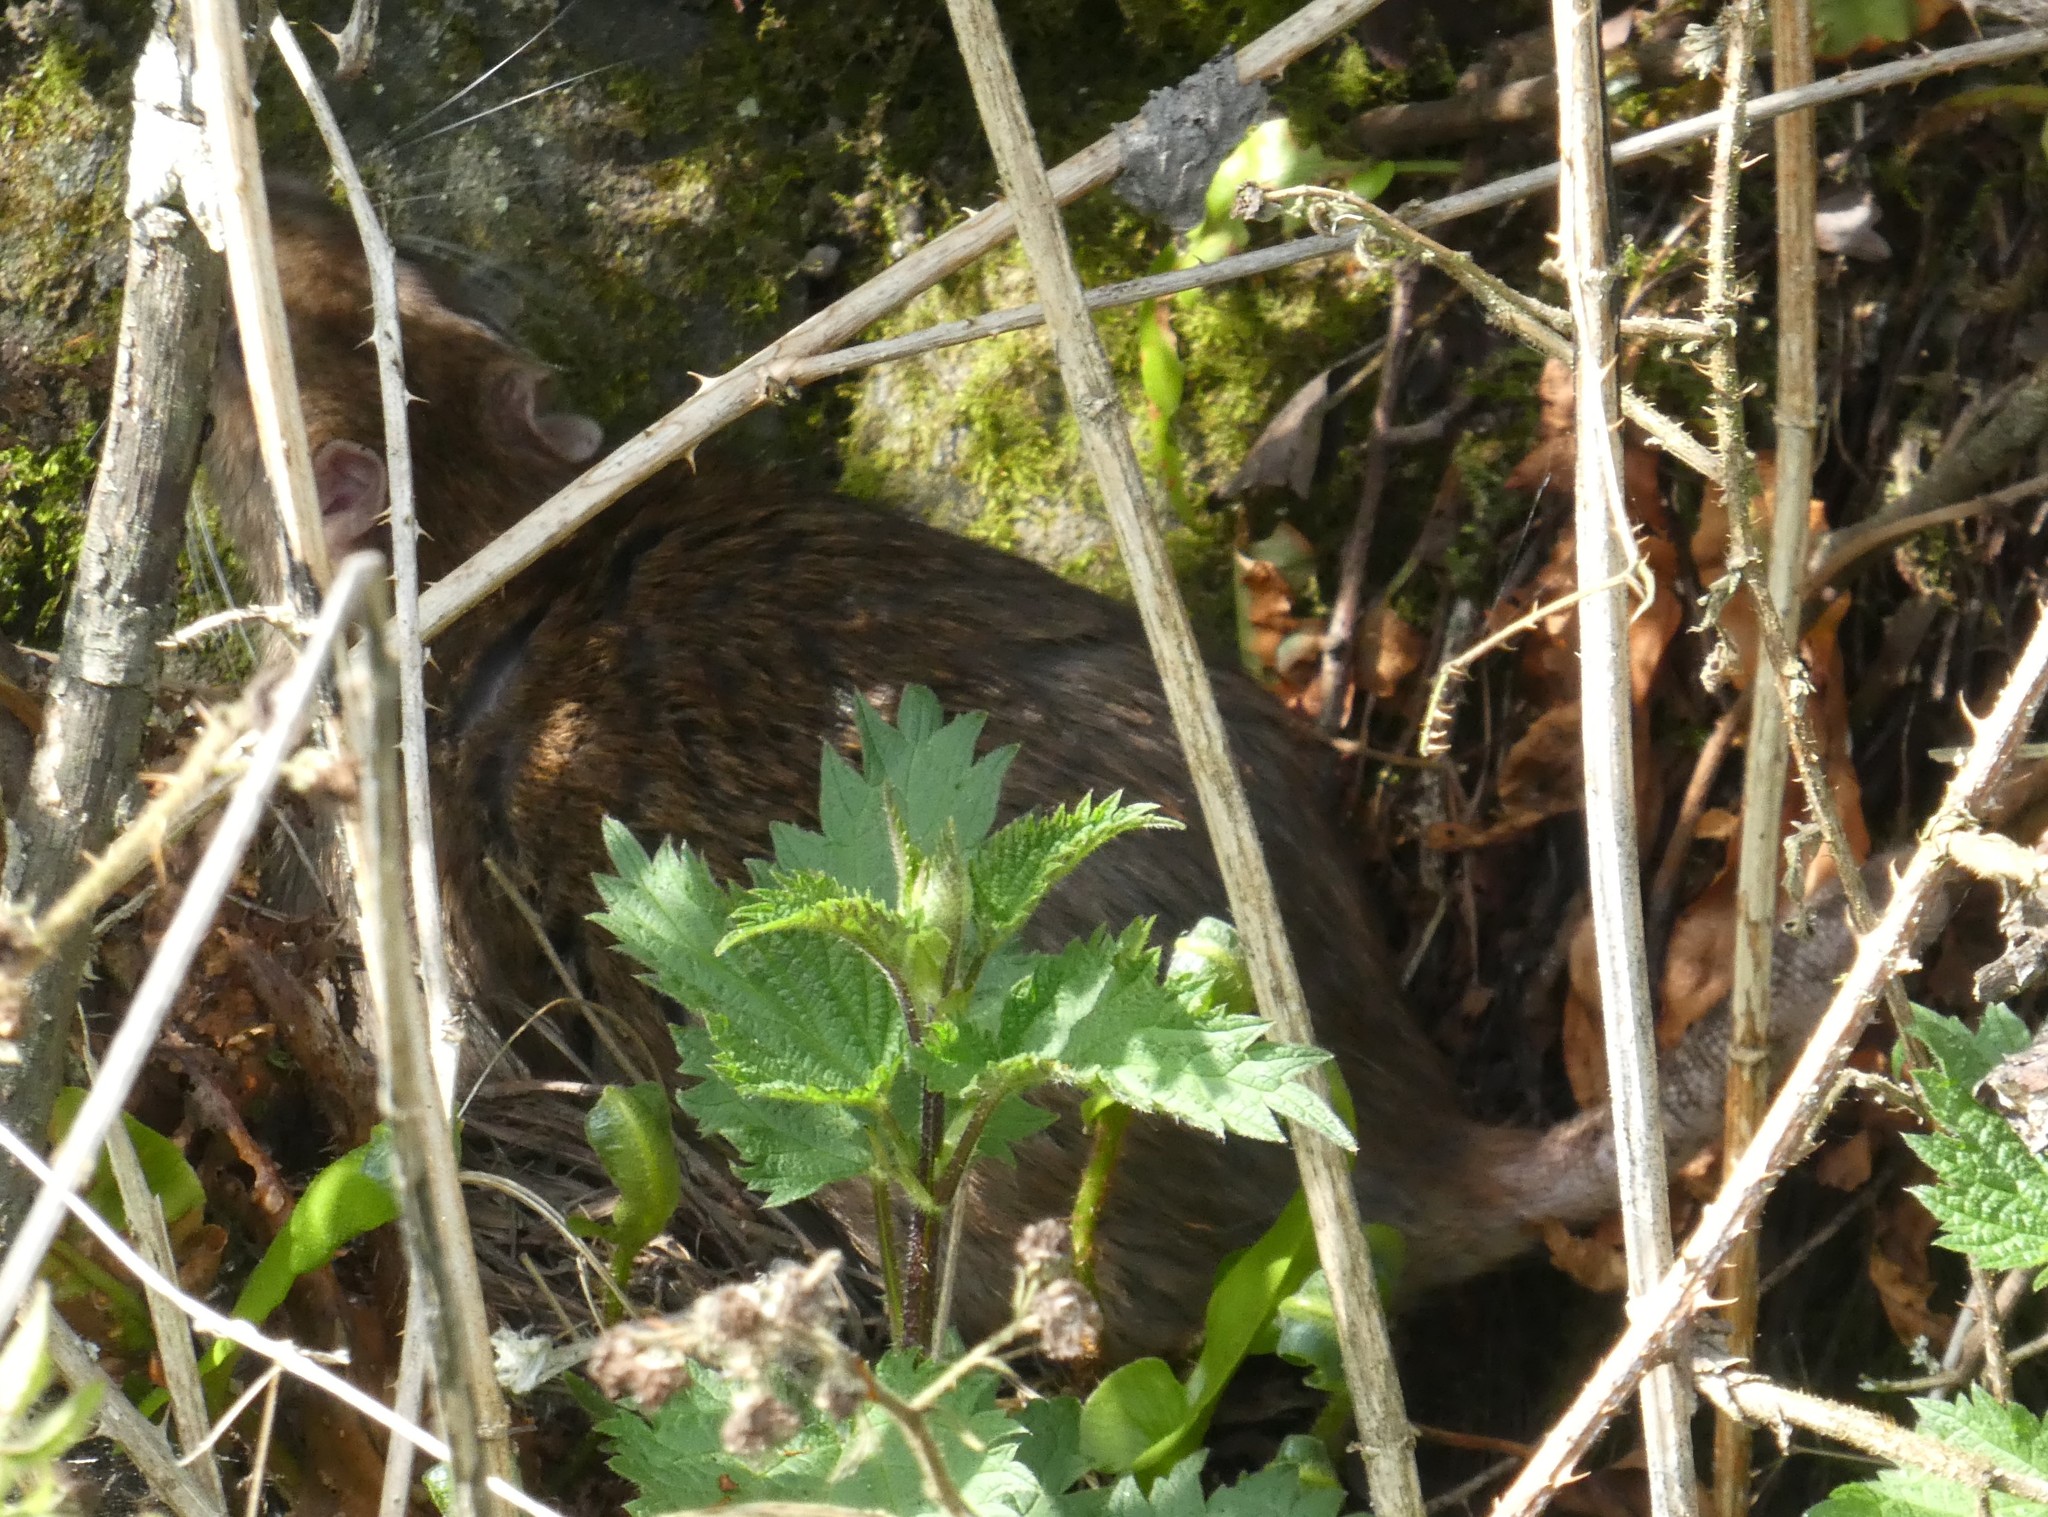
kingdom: Animalia
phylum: Chordata
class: Mammalia
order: Rodentia
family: Muridae
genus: Rattus
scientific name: Rattus norvegicus
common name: Brown rat
